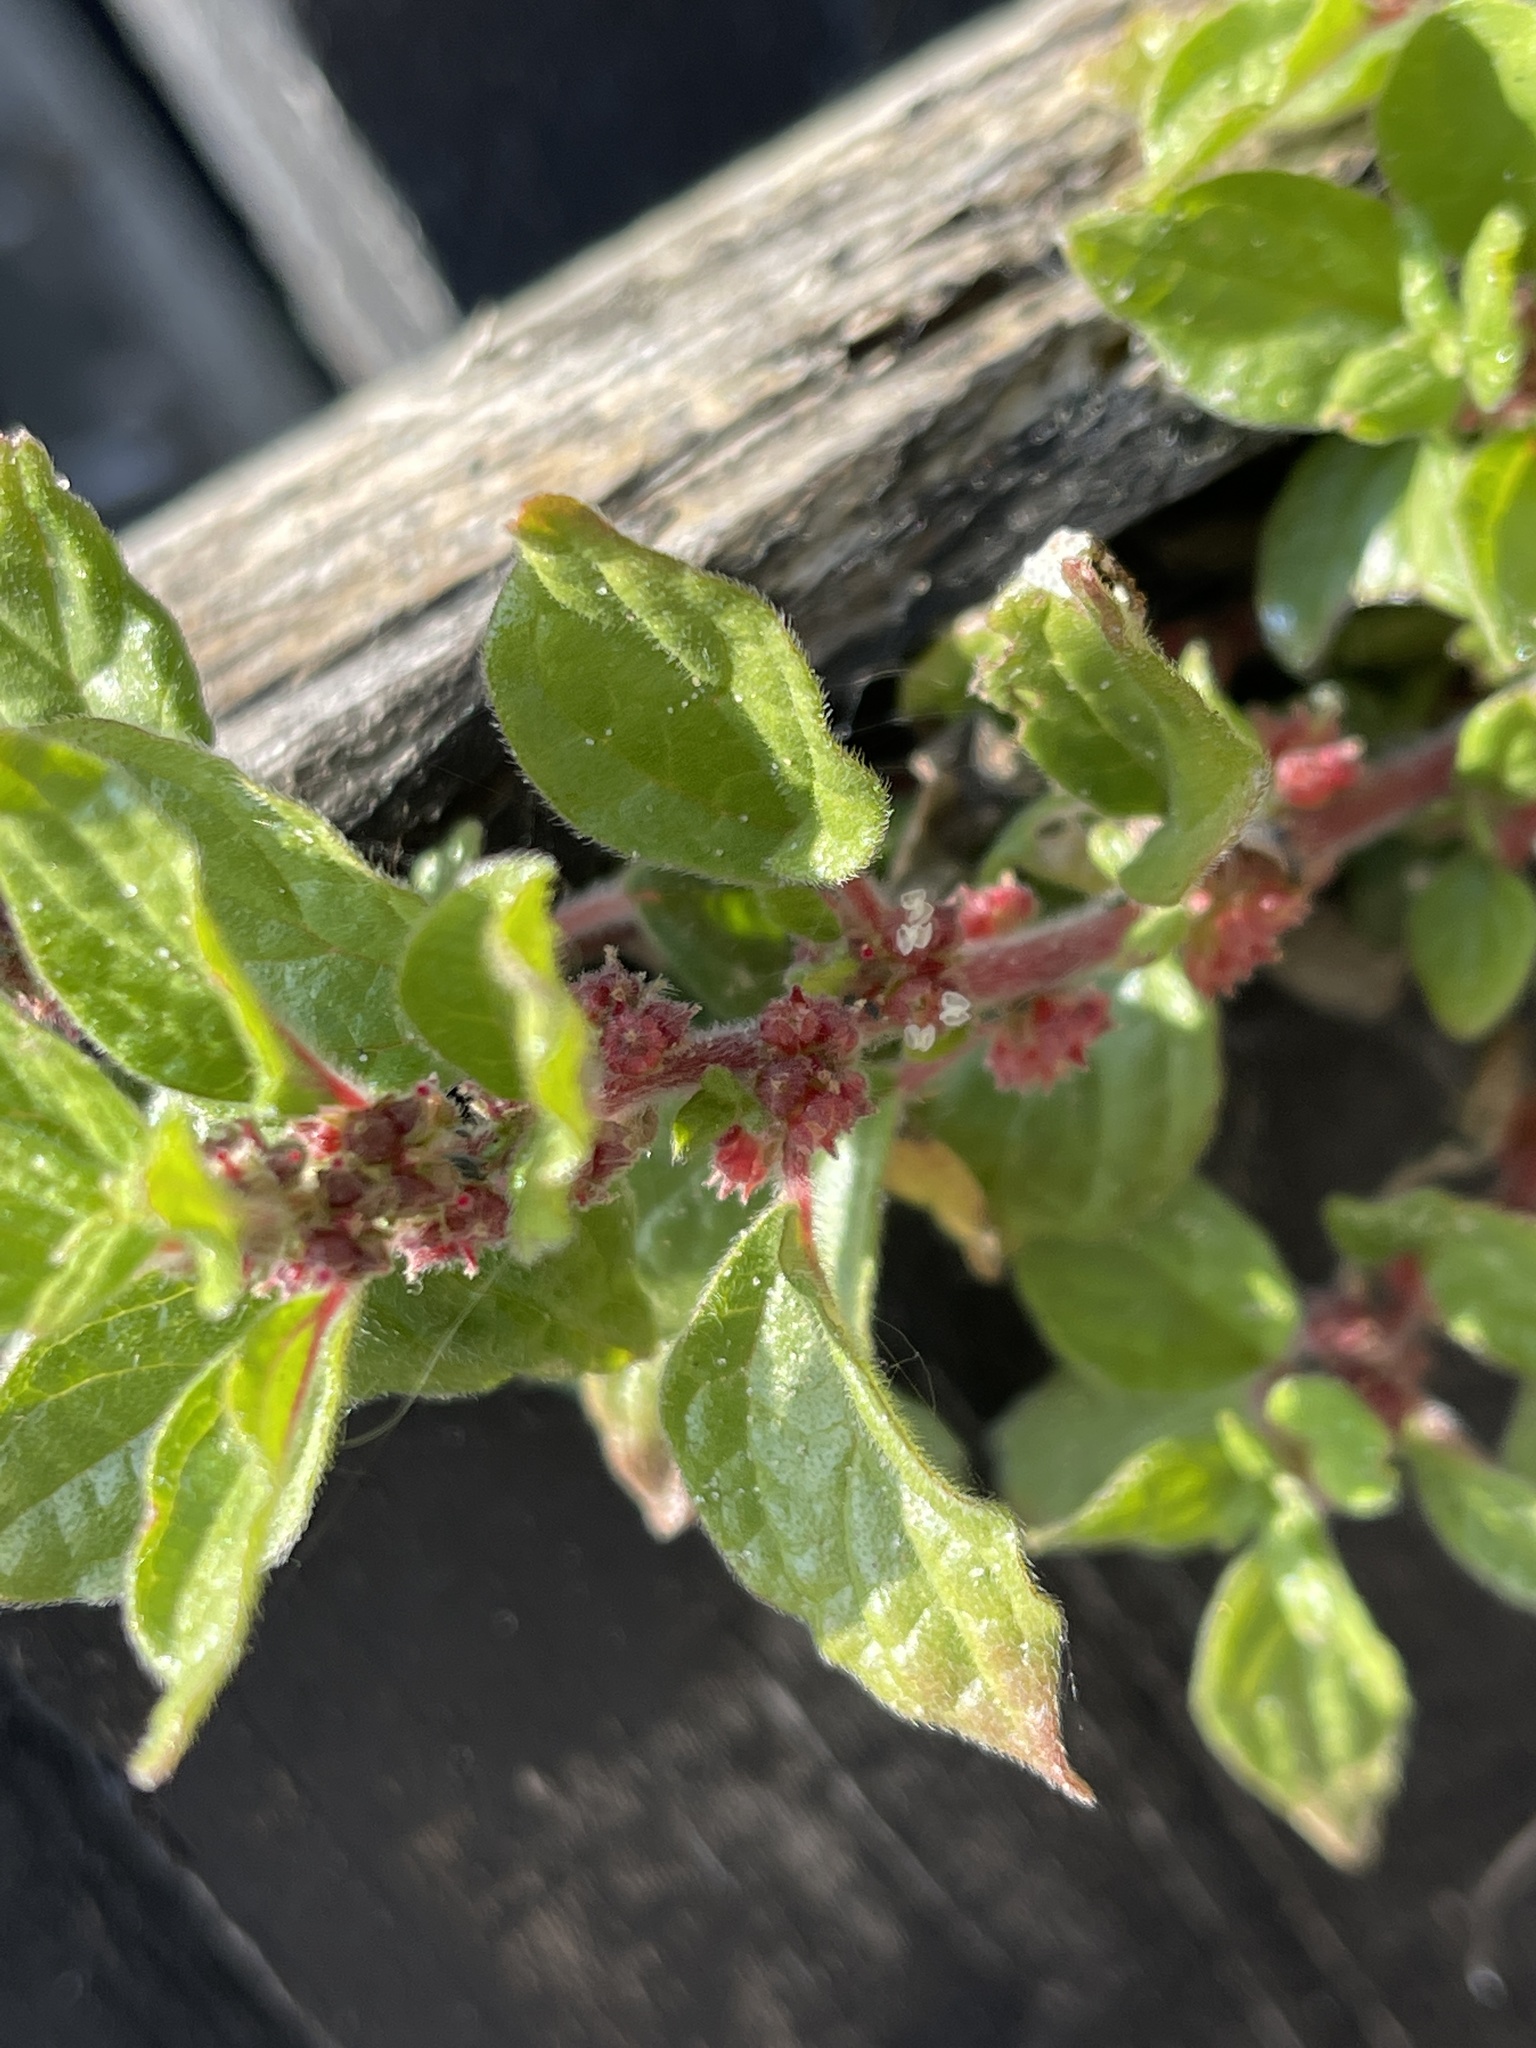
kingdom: Plantae
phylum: Tracheophyta
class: Magnoliopsida
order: Rosales
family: Urticaceae
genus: Parietaria
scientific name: Parietaria judaica
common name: Pellitory-of-the-wall
